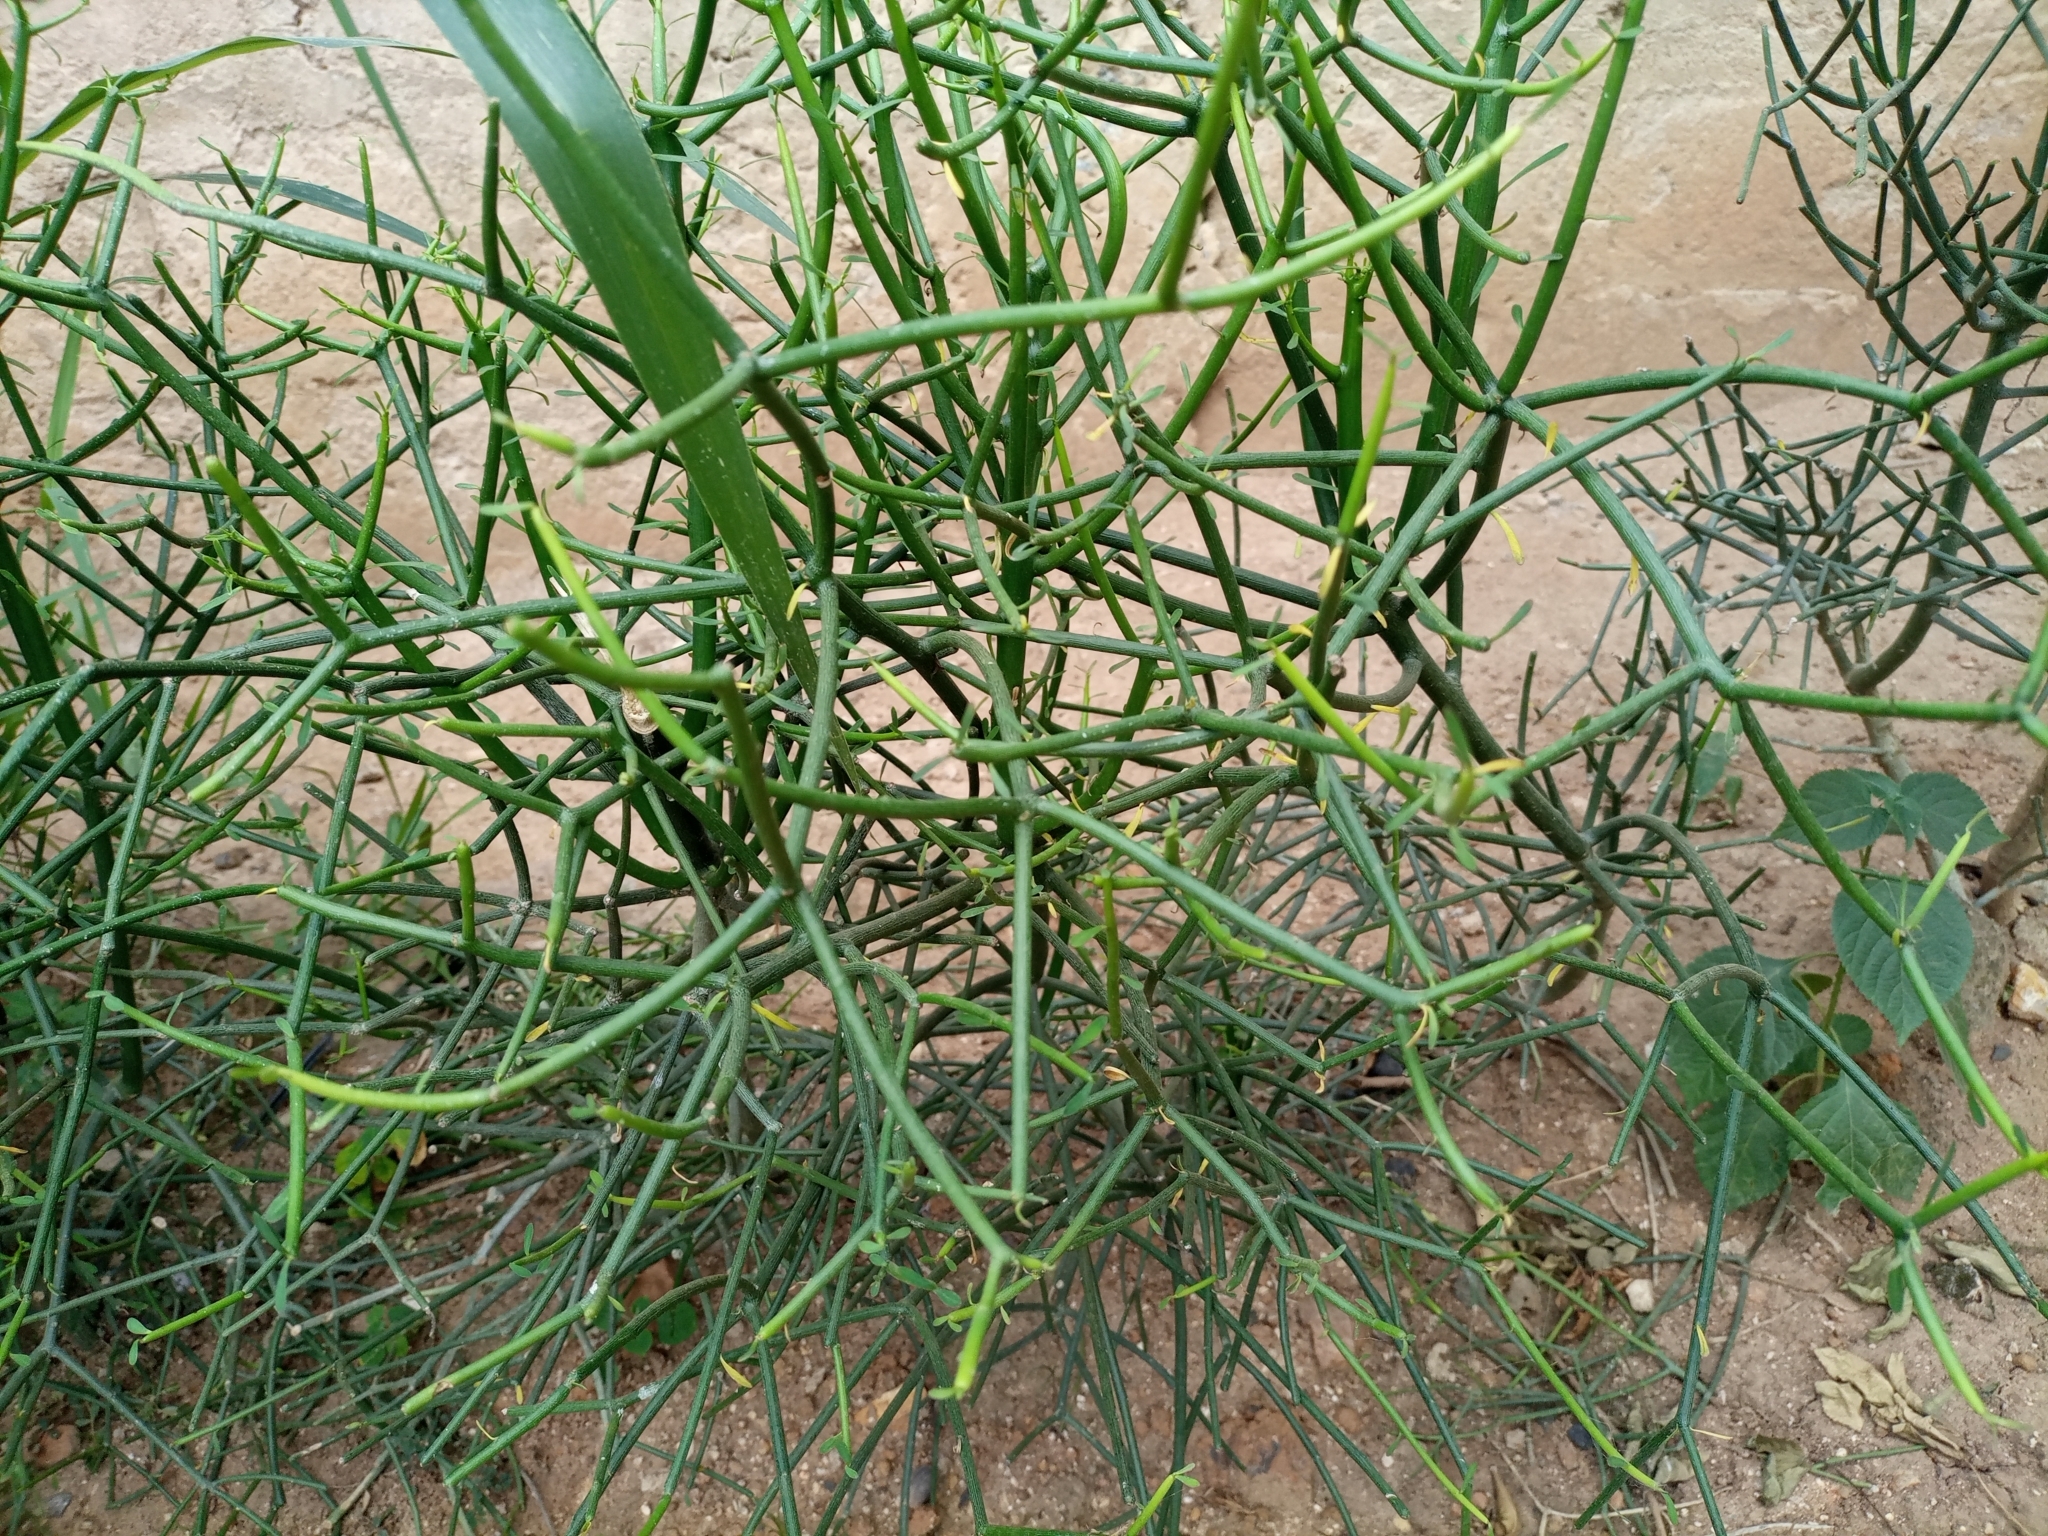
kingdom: Plantae
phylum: Tracheophyta
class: Magnoliopsida
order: Malpighiales
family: Euphorbiaceae
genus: Euphorbia
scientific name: Euphorbia tirucalli
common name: Indiantree spurge
